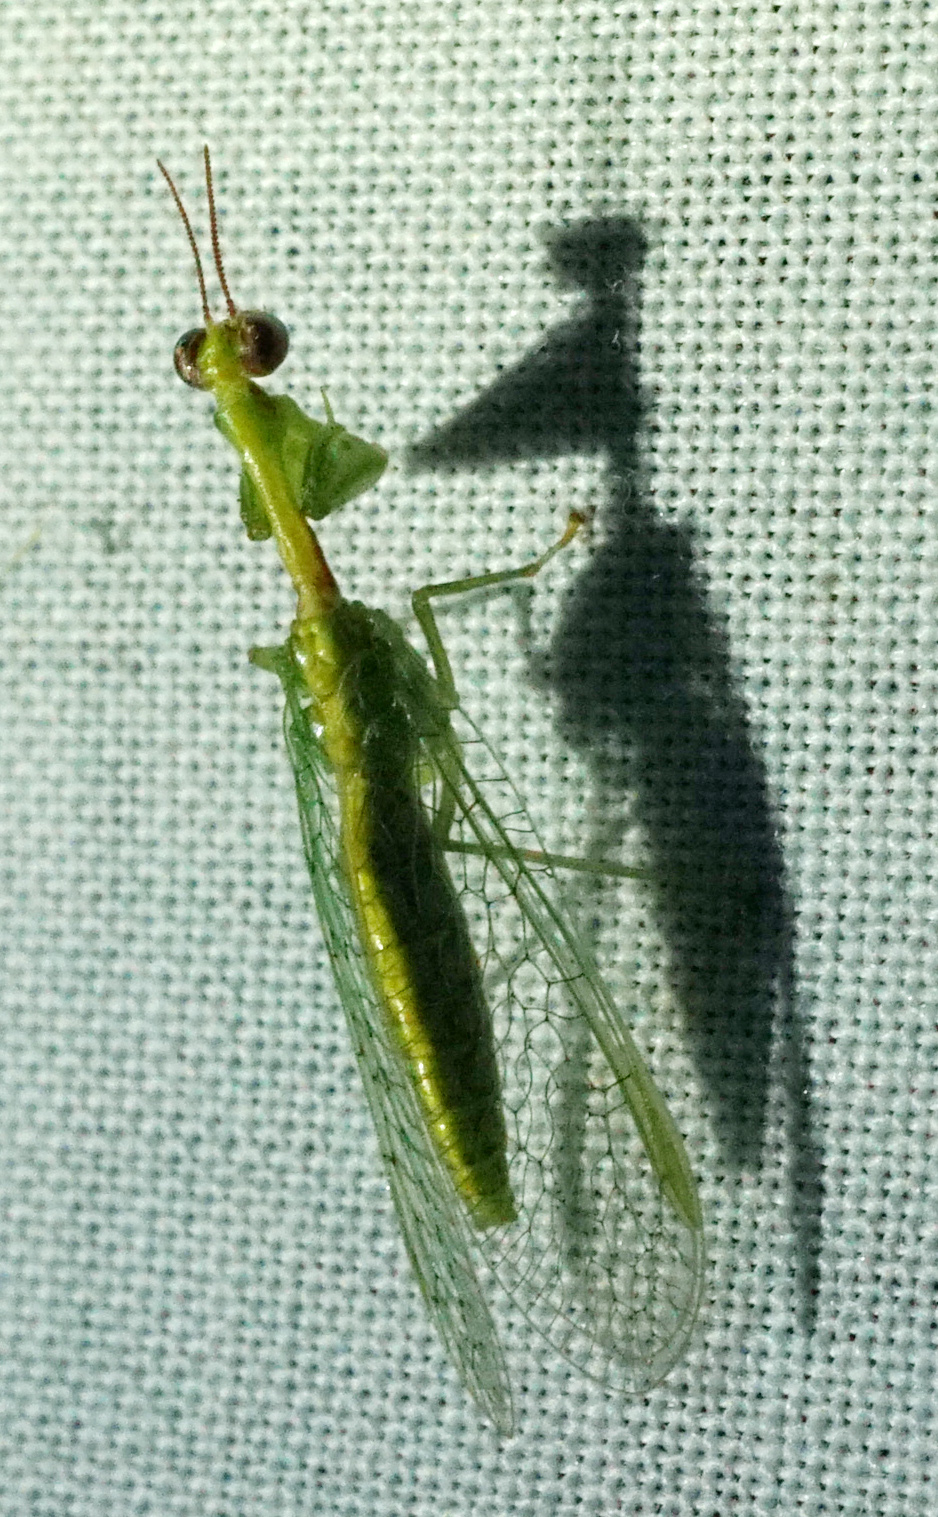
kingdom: Animalia
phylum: Arthropoda
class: Insecta
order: Neuroptera
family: Mantispidae
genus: Zeugomantispa
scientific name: Zeugomantispa minuta
